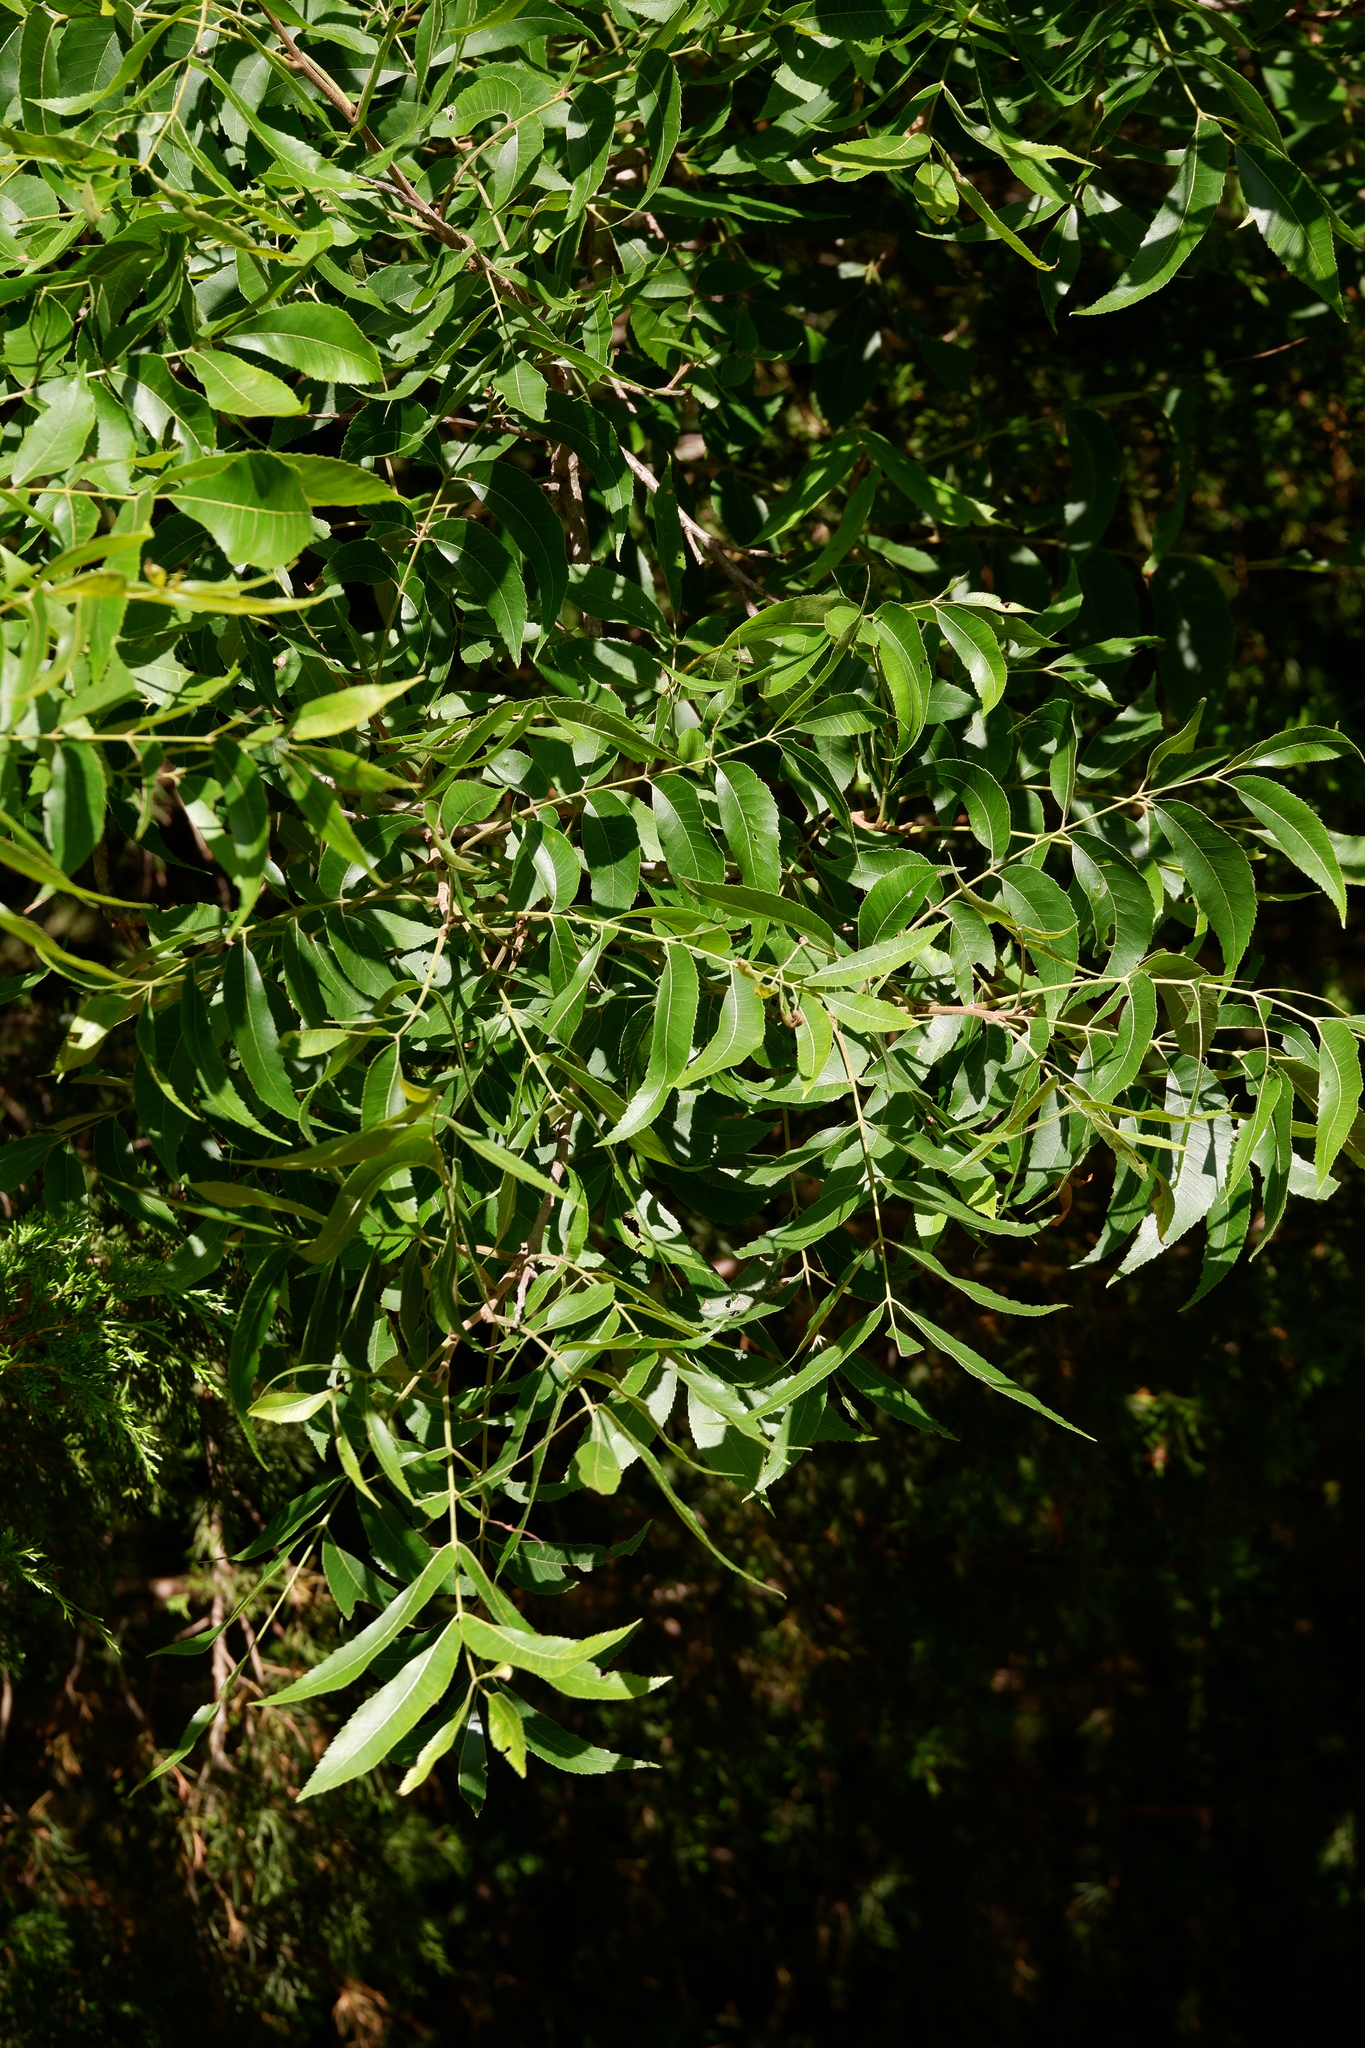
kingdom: Plantae
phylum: Tracheophyta
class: Magnoliopsida
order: Fagales
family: Juglandaceae
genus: Carya
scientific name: Carya illinoinensis
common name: Pecan
